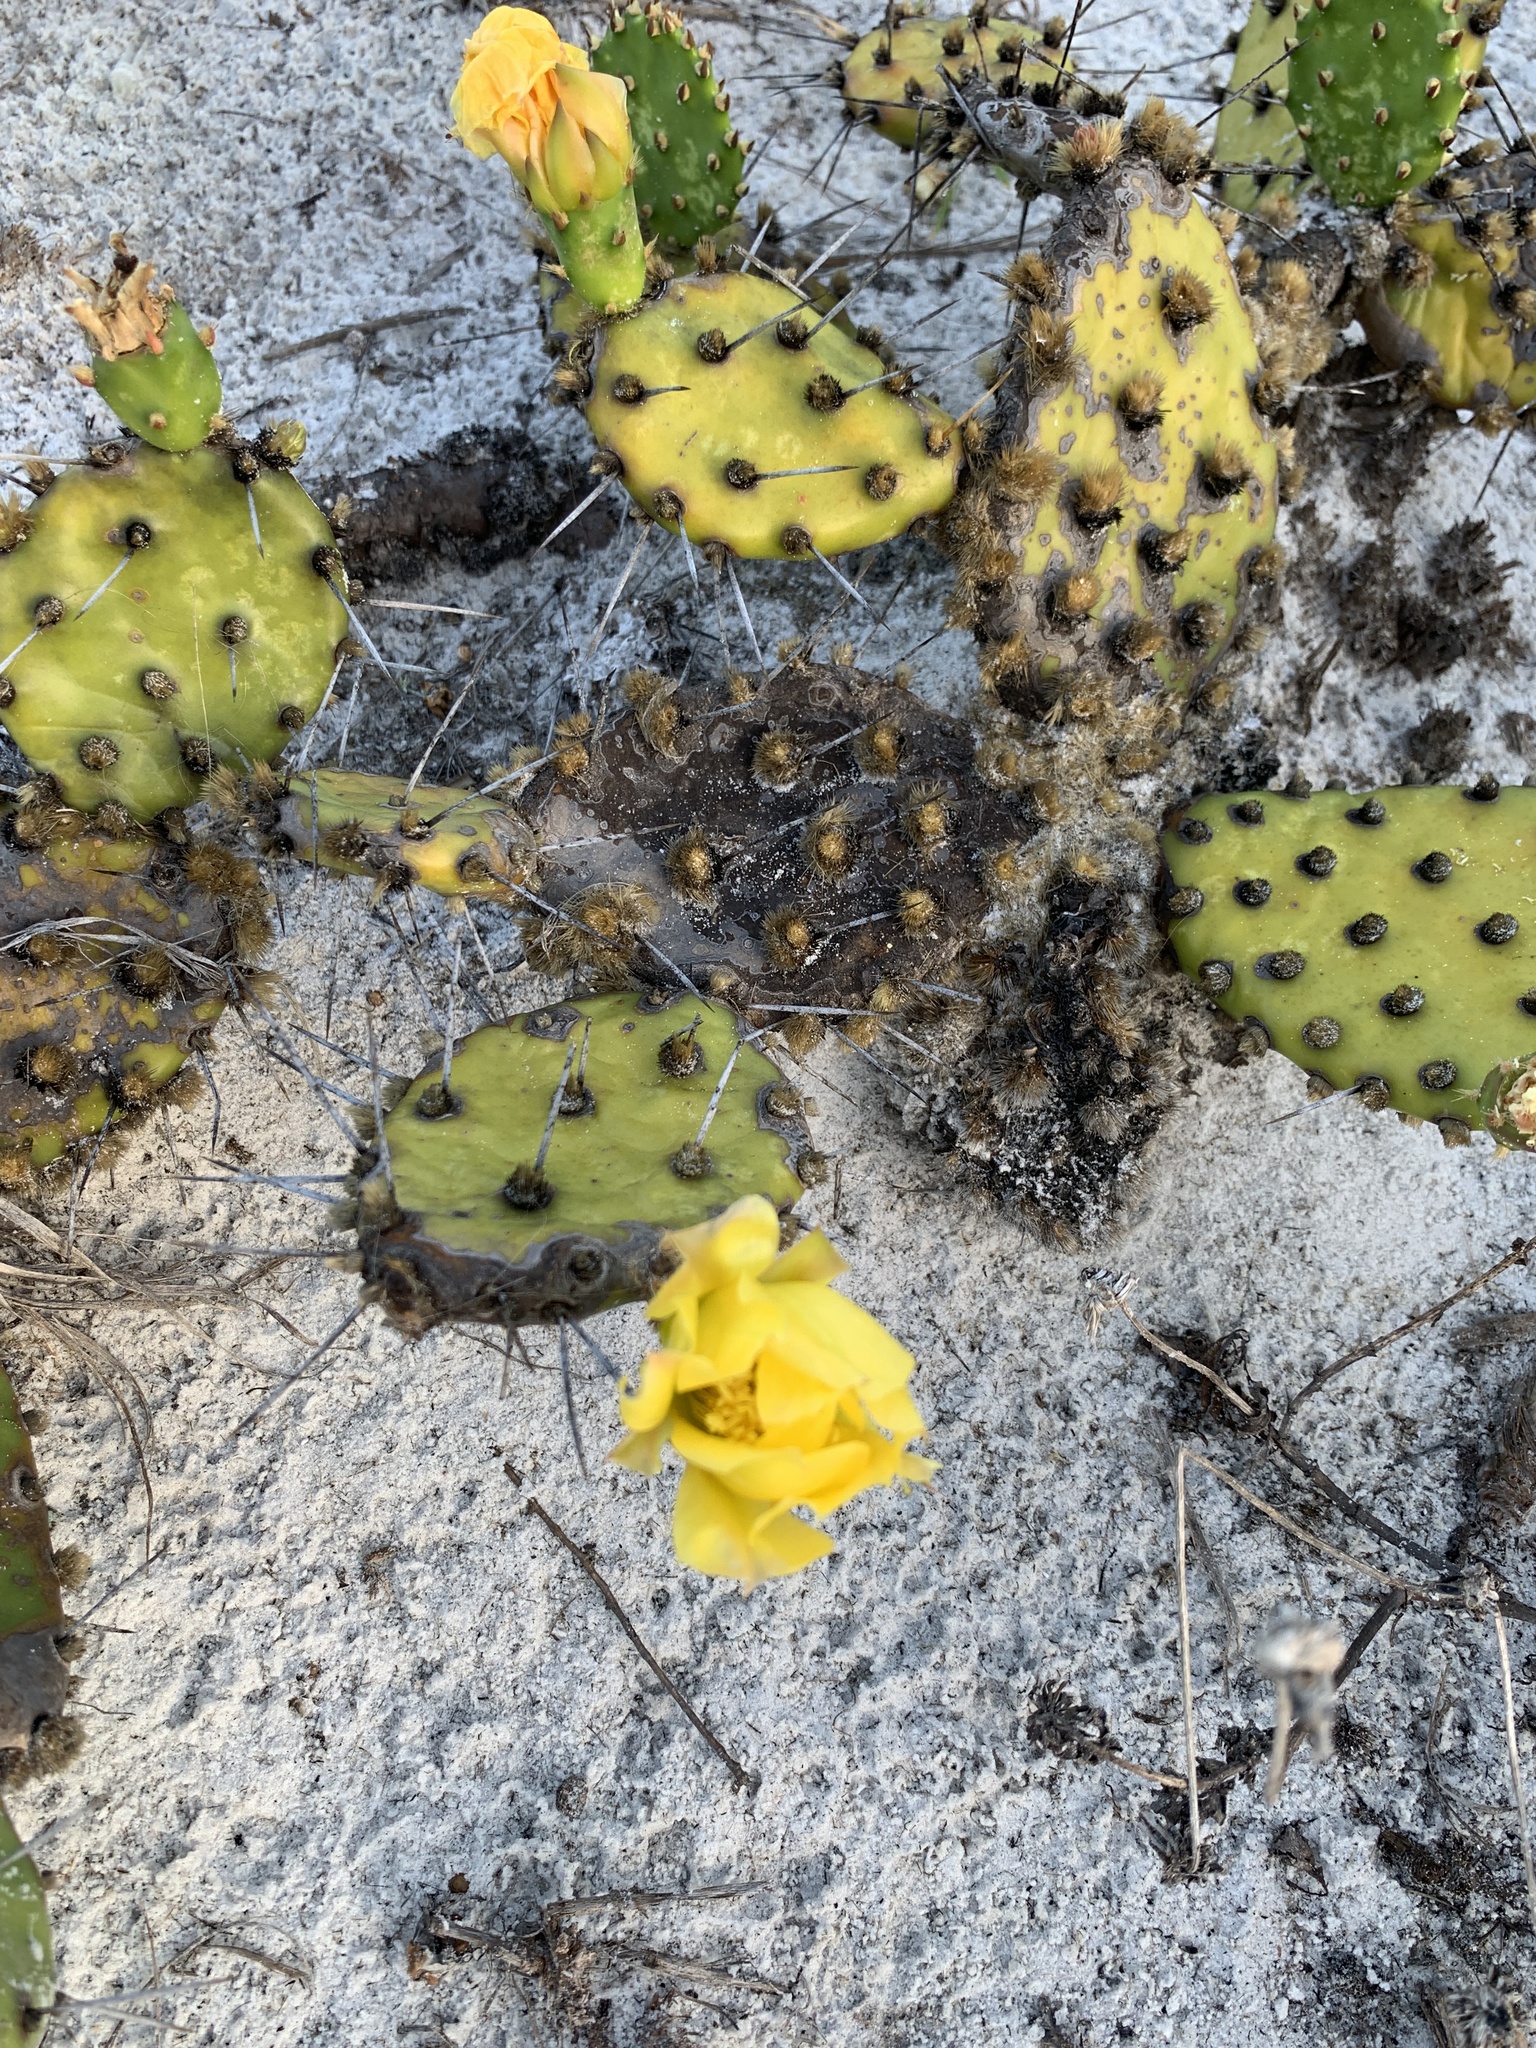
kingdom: Plantae
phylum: Tracheophyta
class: Magnoliopsida
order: Caryophyllales
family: Cactaceae
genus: Opuntia
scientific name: Opuntia mesacantha
